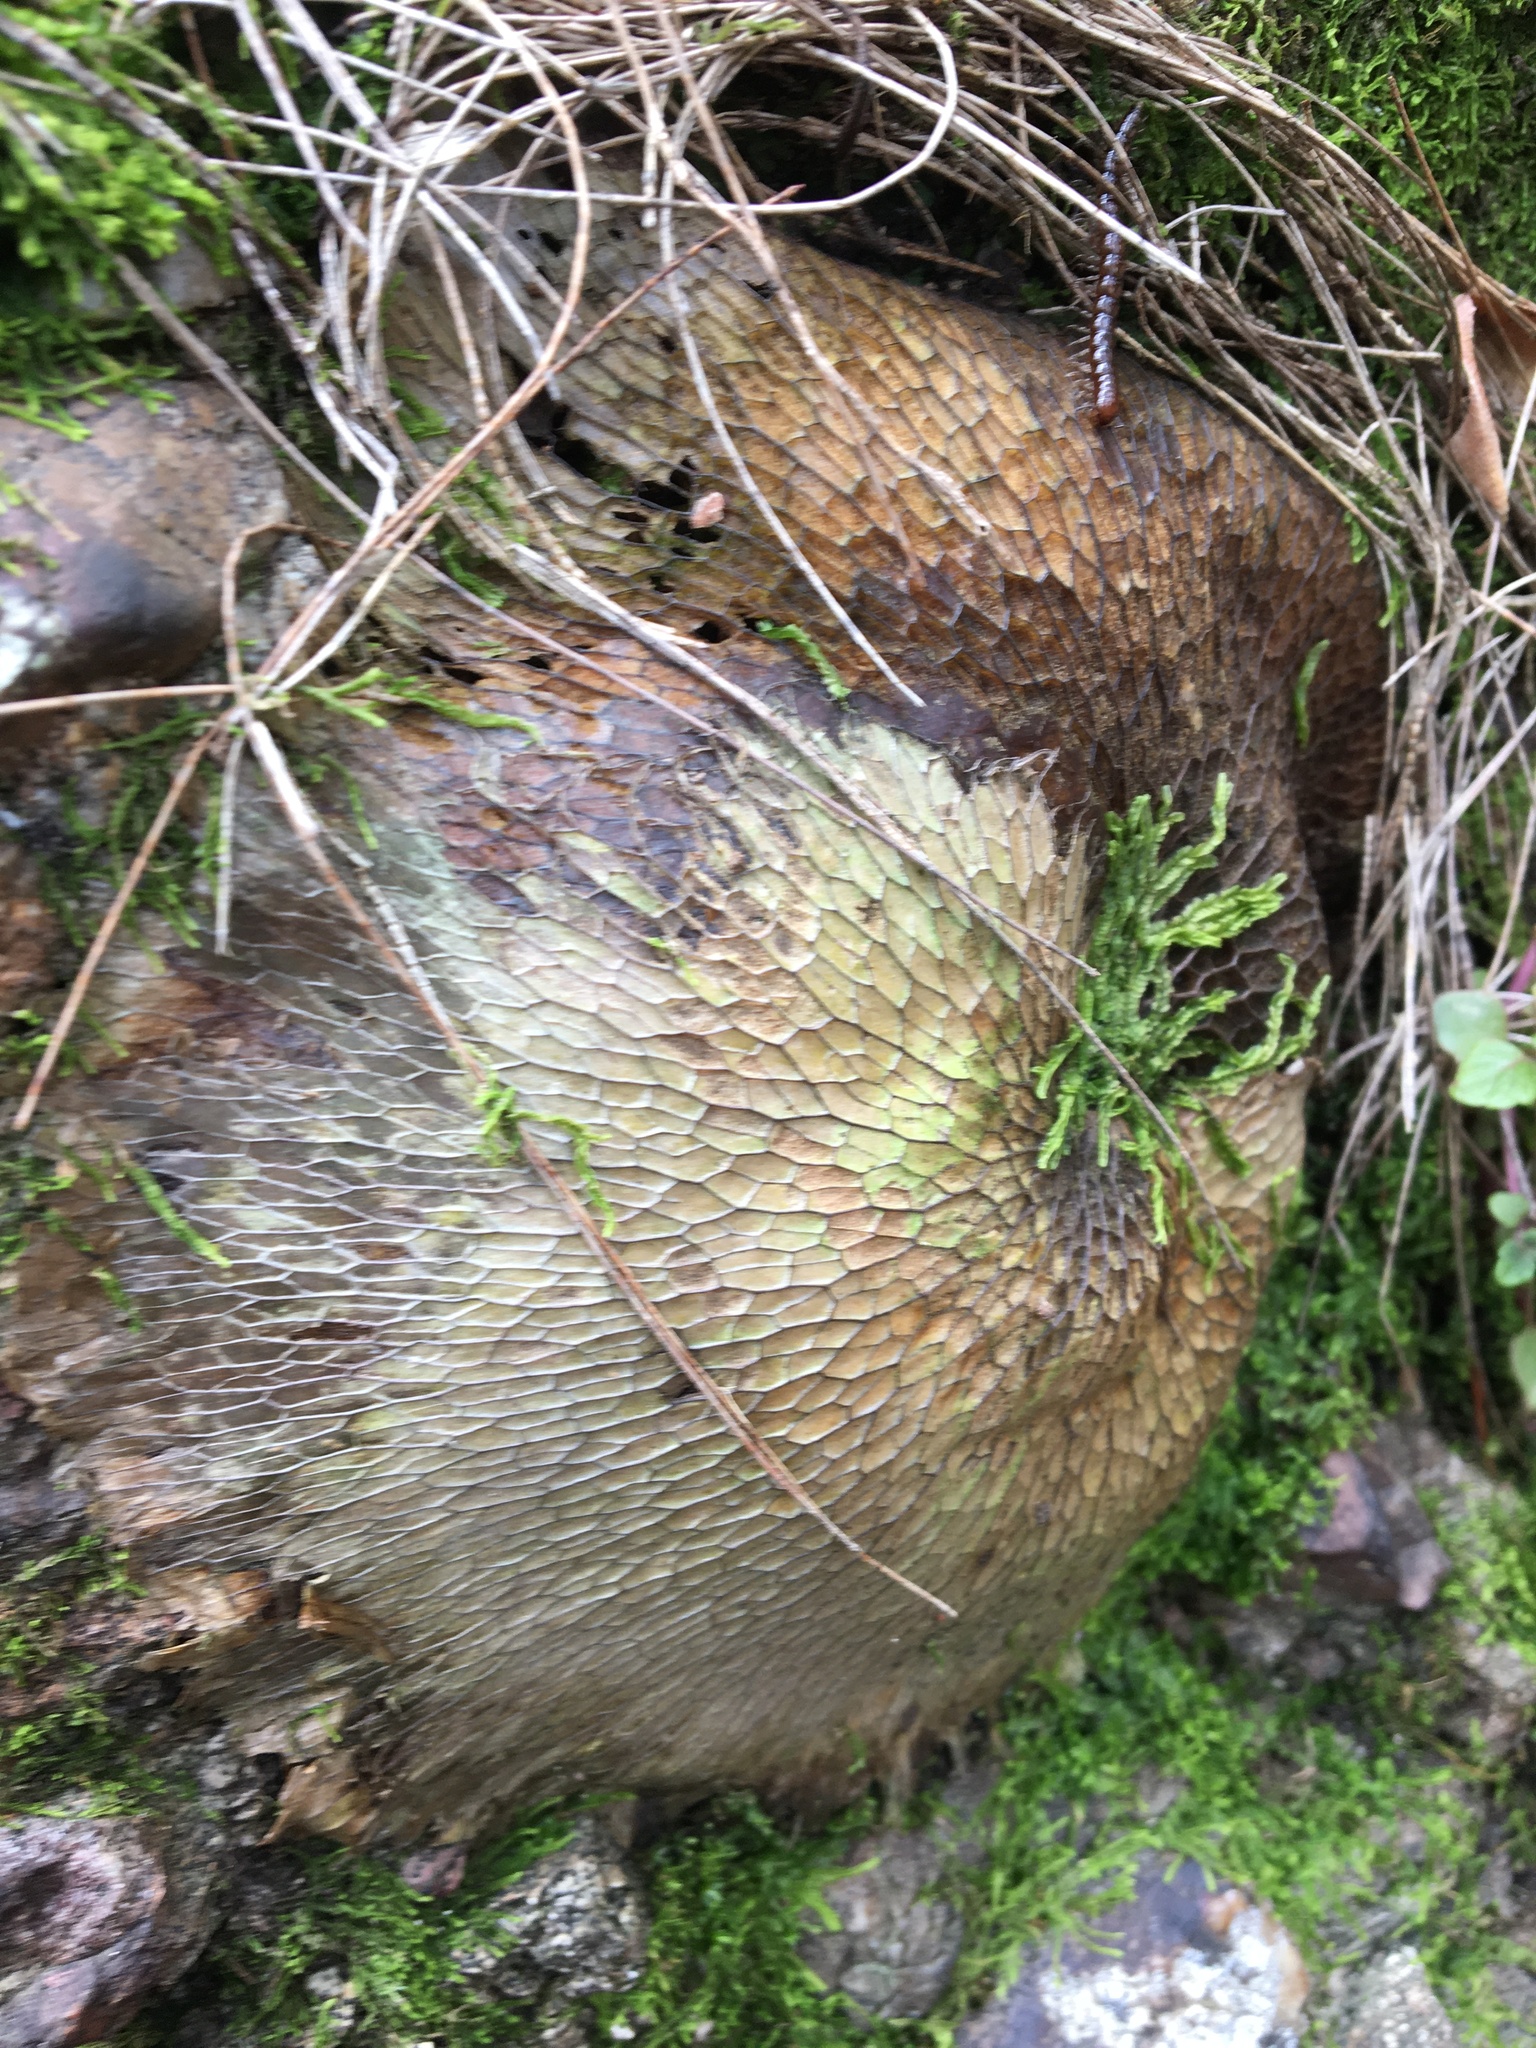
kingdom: Plantae
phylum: Tracheophyta
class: Polypodiopsida
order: Polypodiales
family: Polypodiaceae
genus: Platycerium
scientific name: Platycerium bifurcatum
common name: Elkhorn fern
